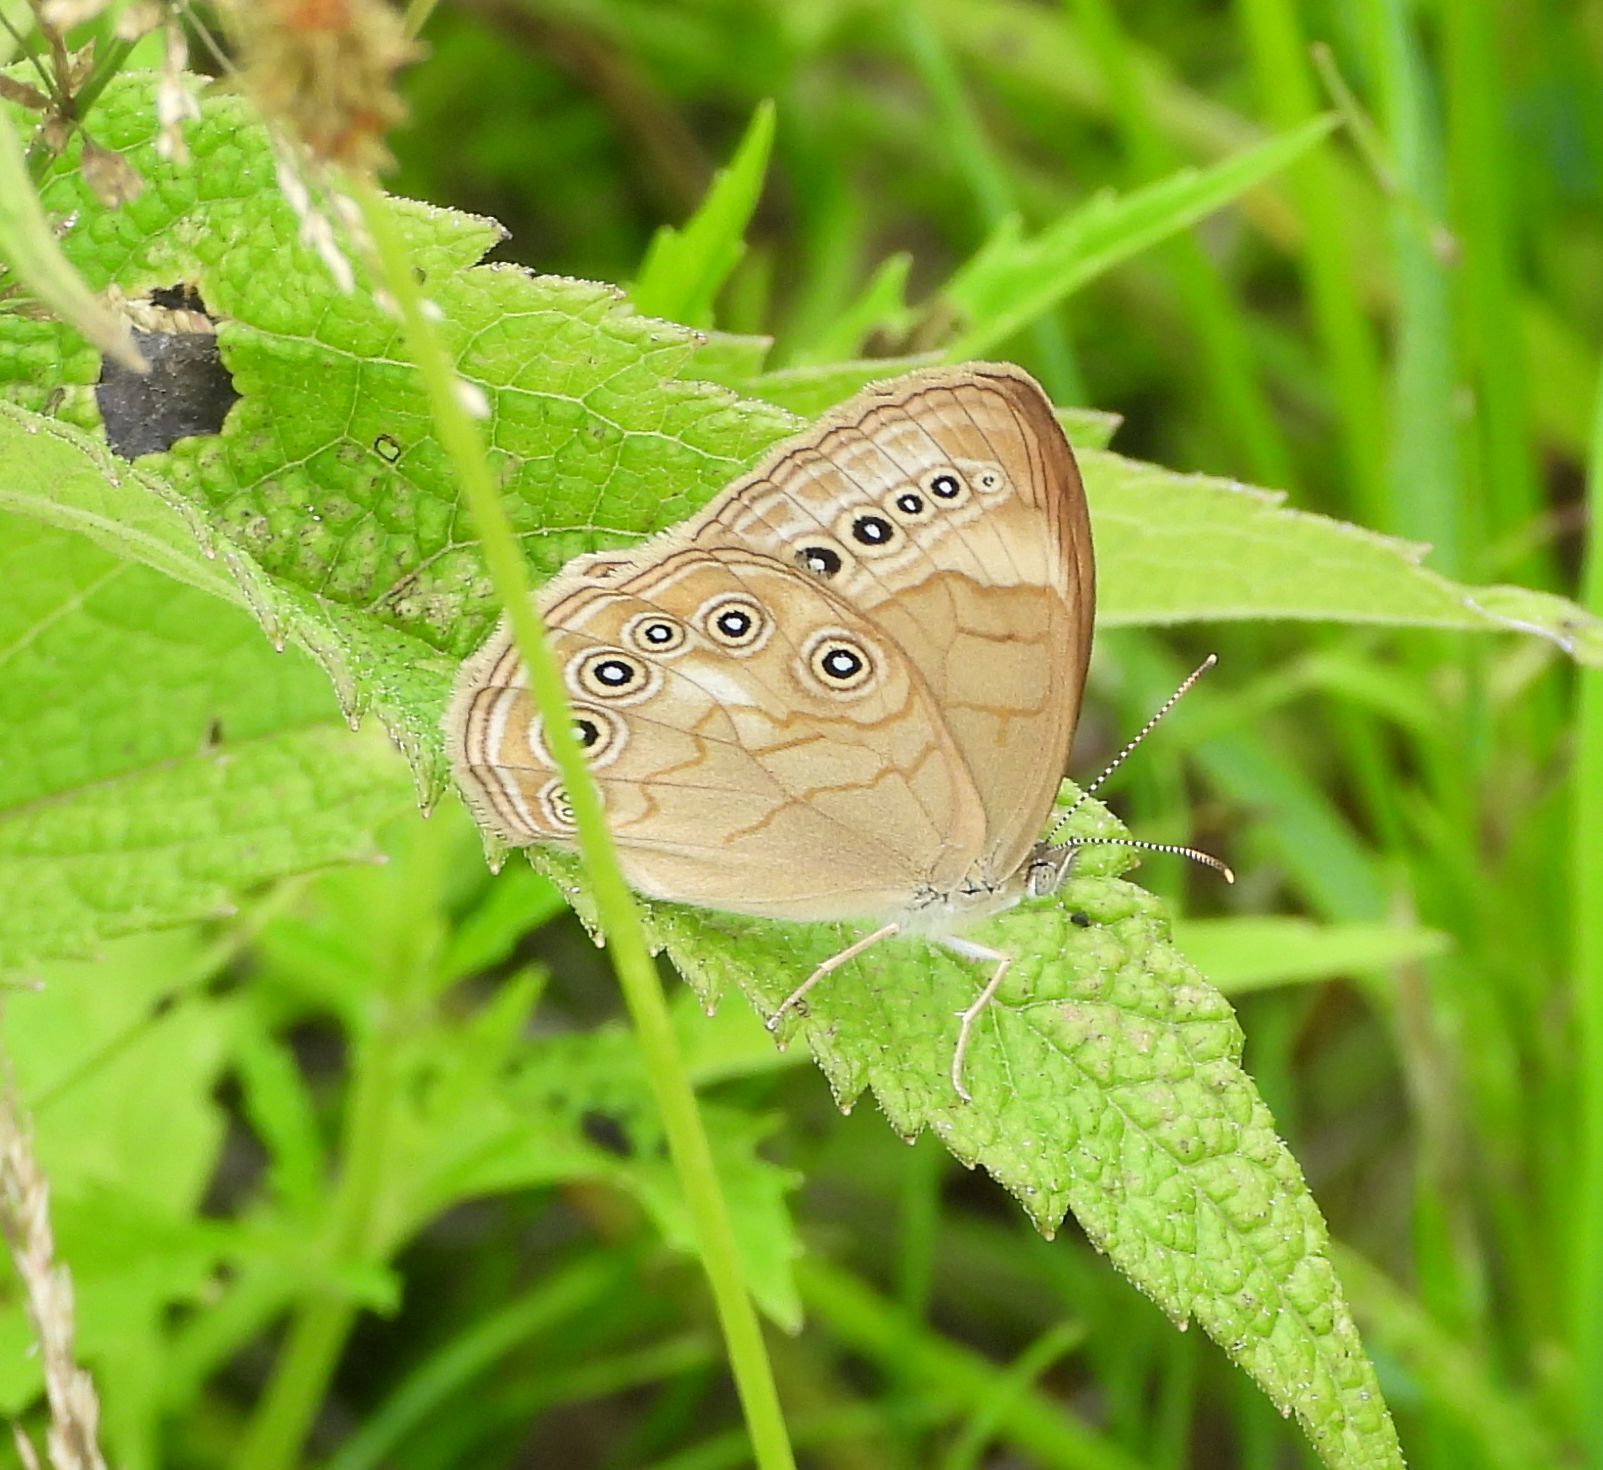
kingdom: Animalia
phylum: Arthropoda
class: Insecta
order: Lepidoptera
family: Nymphalidae
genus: Lethe
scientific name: Lethe eurydice
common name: Eyed brown
